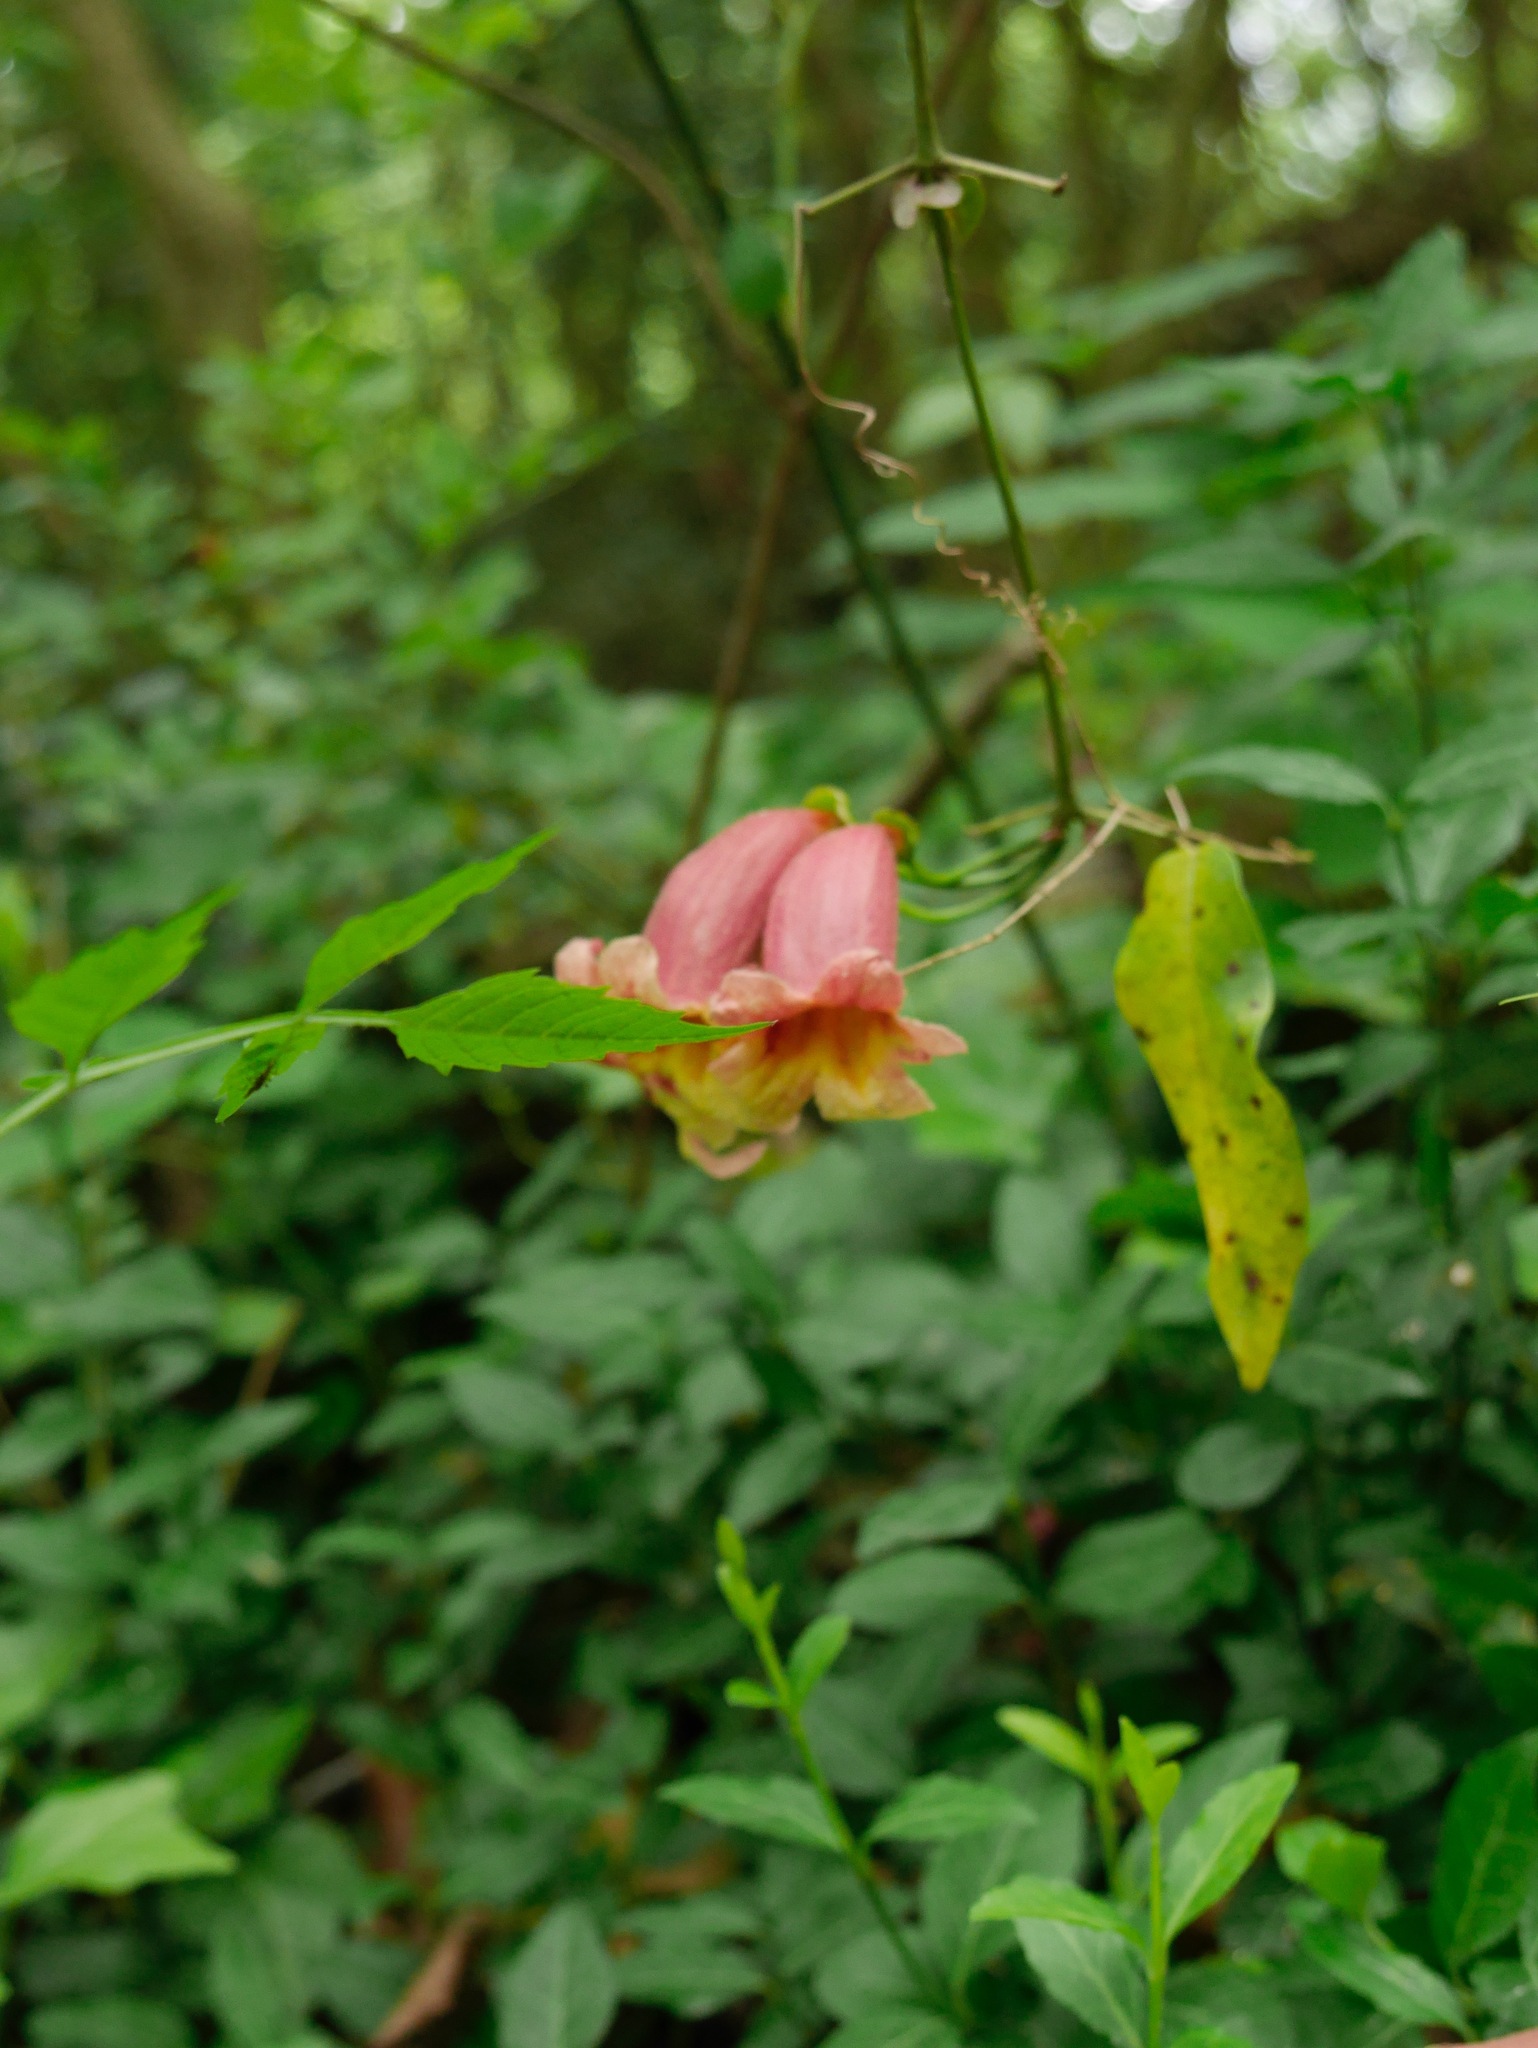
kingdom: Plantae
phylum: Tracheophyta
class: Magnoliopsida
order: Lamiales
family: Bignoniaceae
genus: Bignonia
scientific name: Bignonia capreolata
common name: Crossvine
